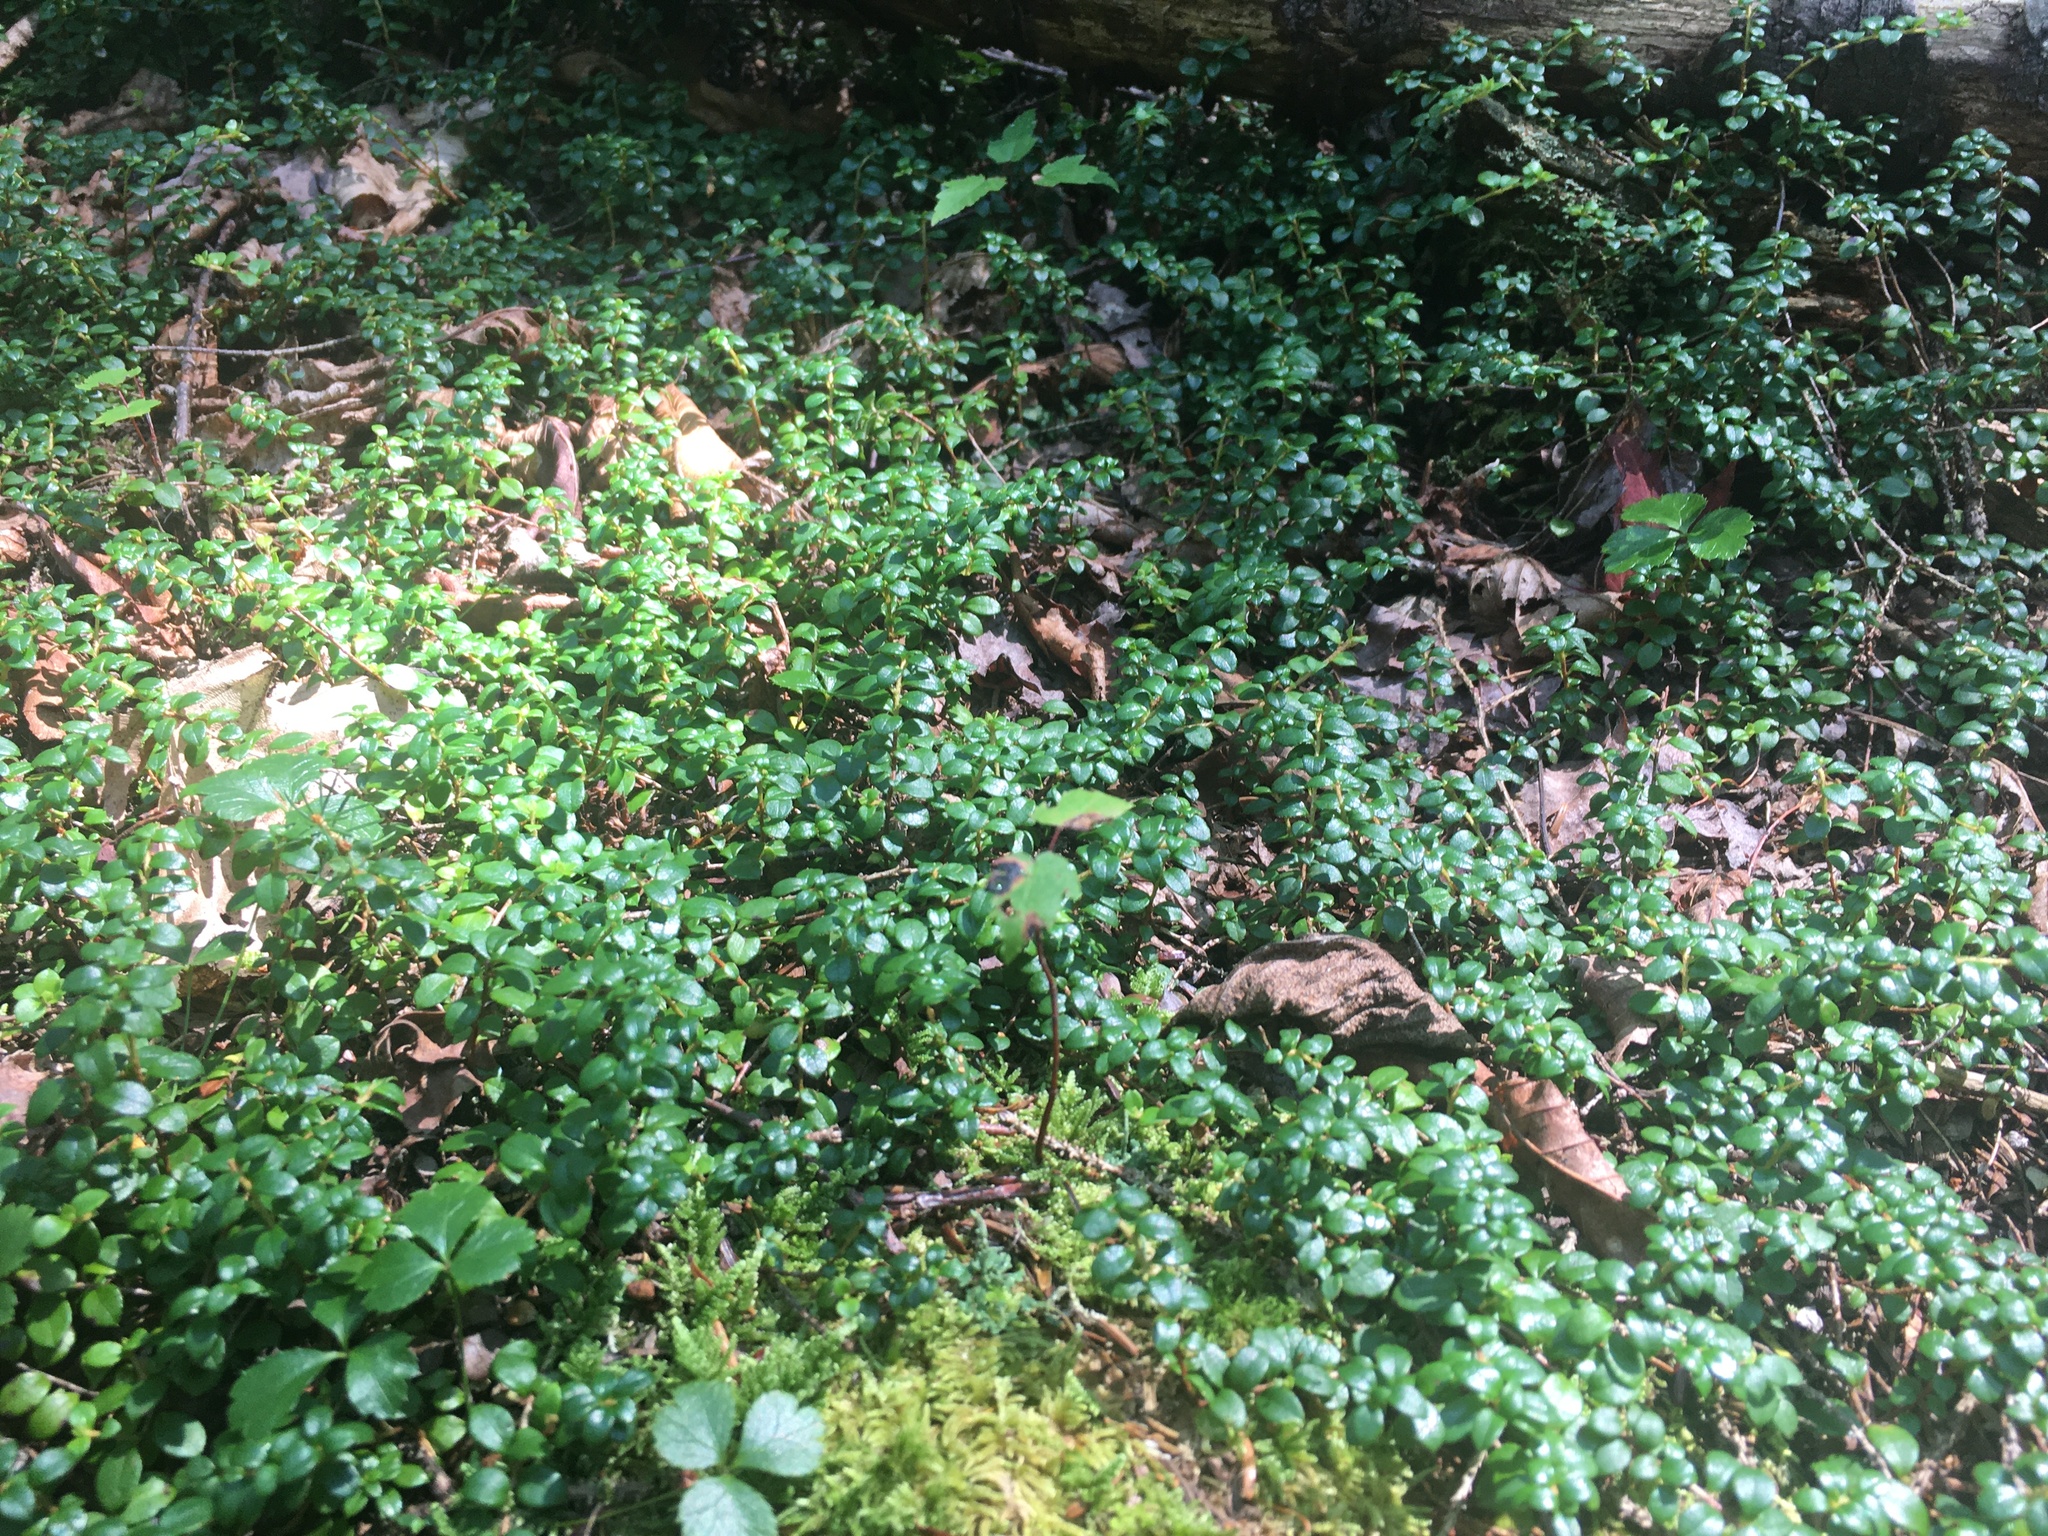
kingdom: Plantae
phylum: Tracheophyta
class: Magnoliopsida
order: Ericales
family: Ericaceae
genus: Gaultheria
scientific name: Gaultheria hispidula
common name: Cancer wintergreen
